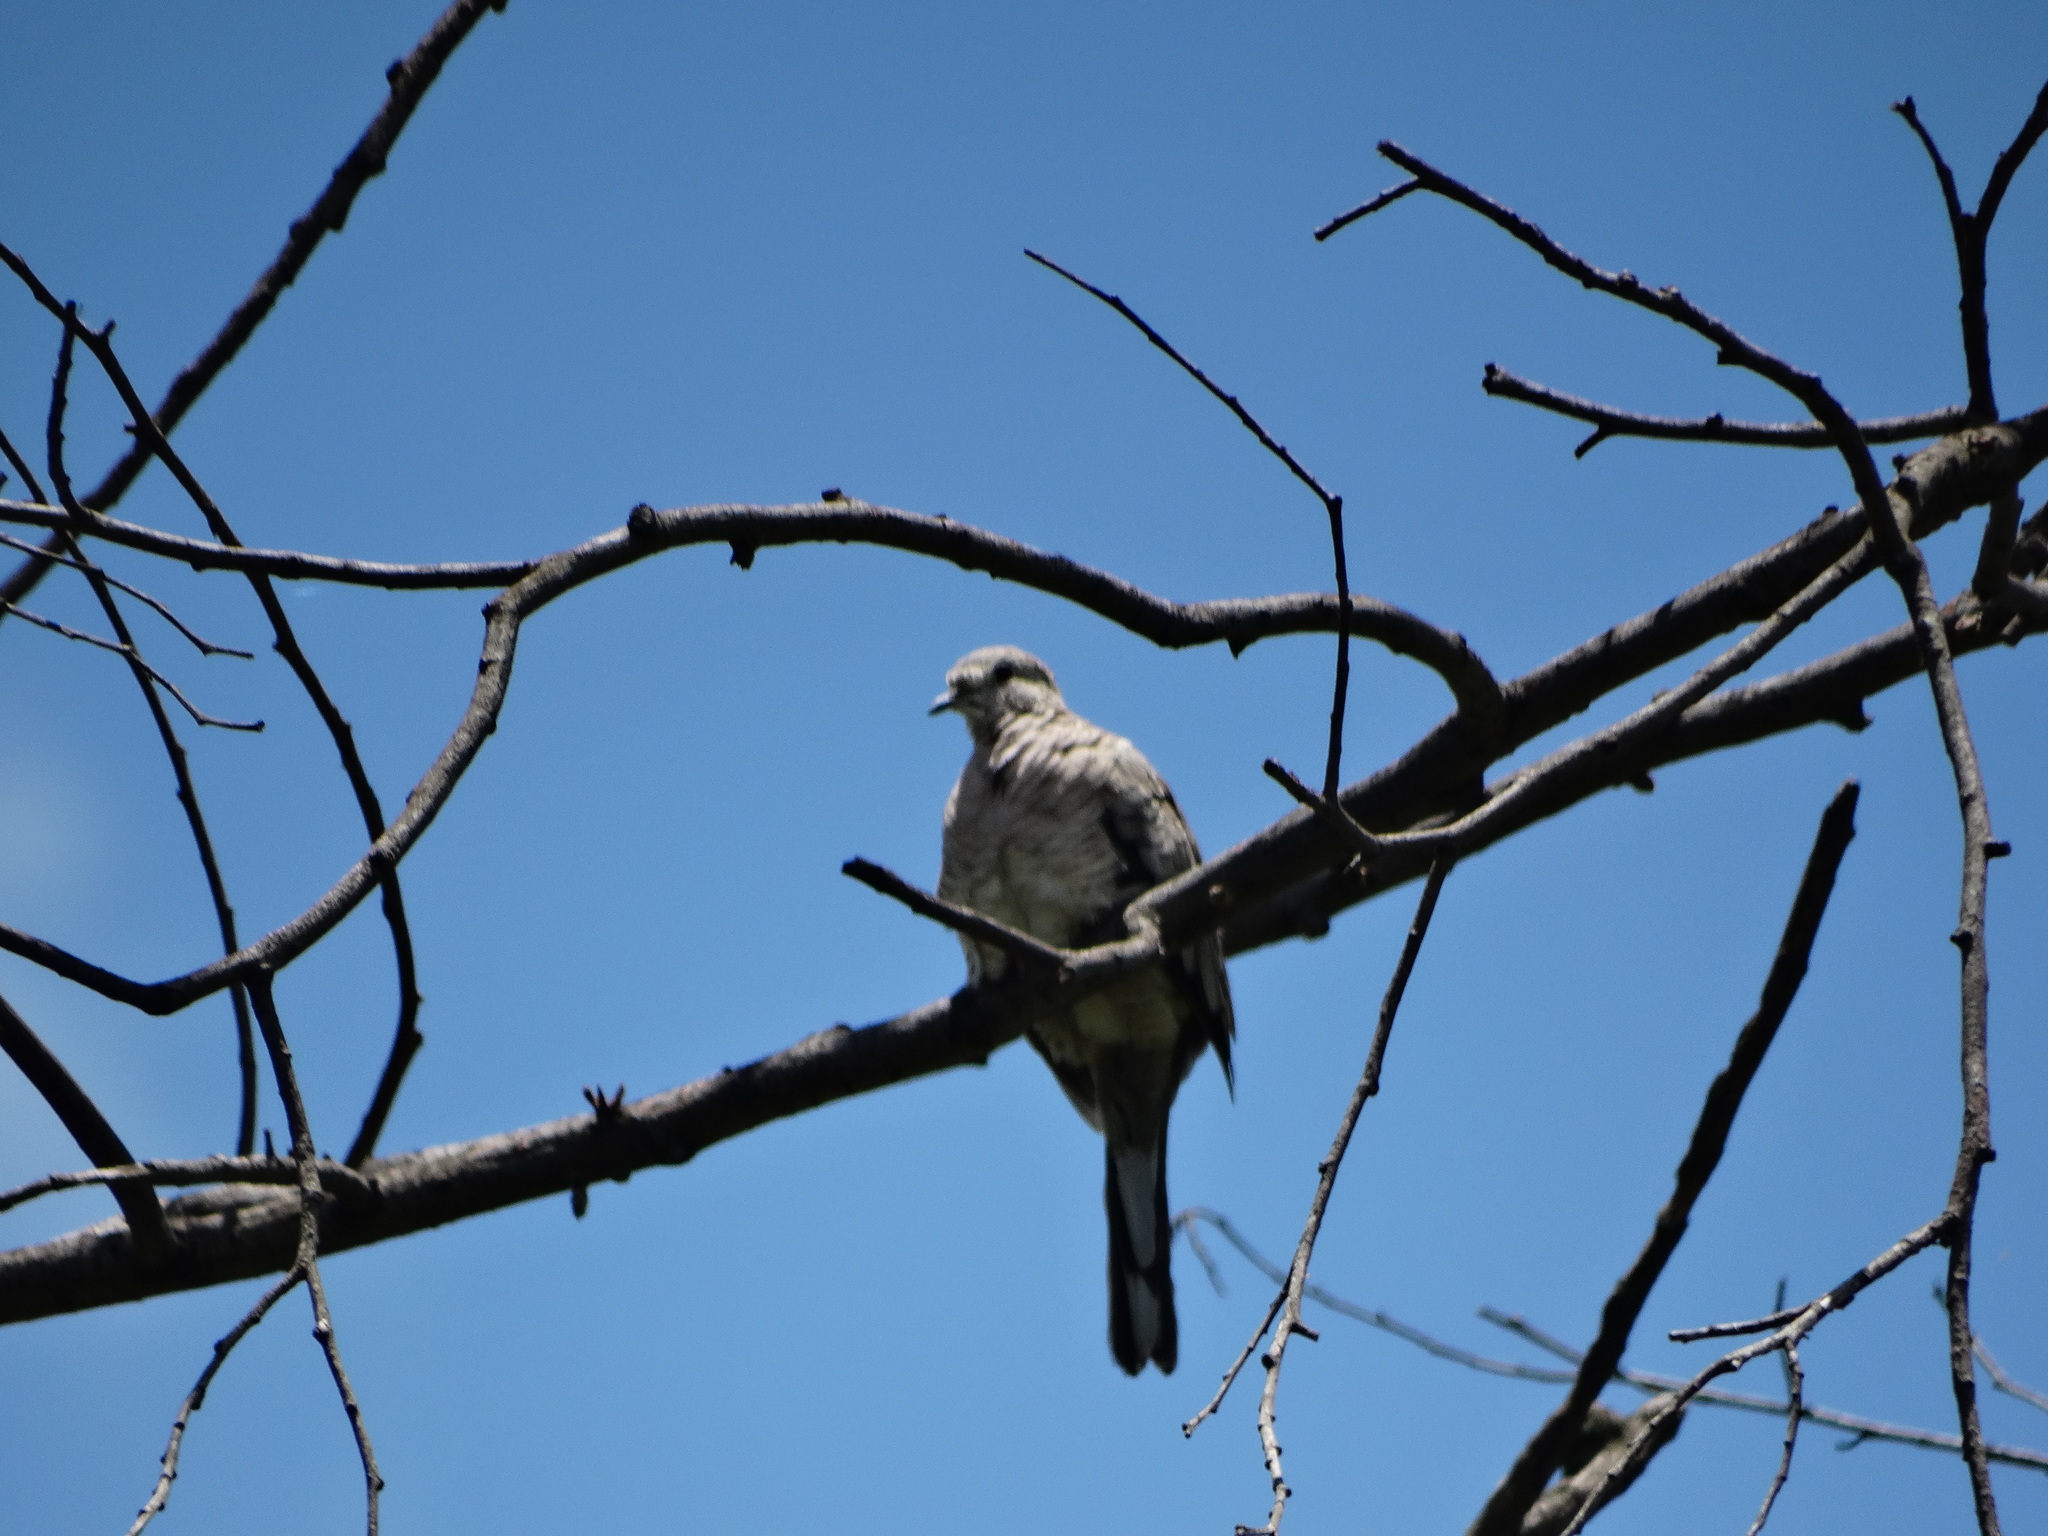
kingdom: Animalia
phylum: Chordata
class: Aves
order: Columbiformes
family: Columbidae
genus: Columbina
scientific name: Columbina inca
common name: Inca dove
